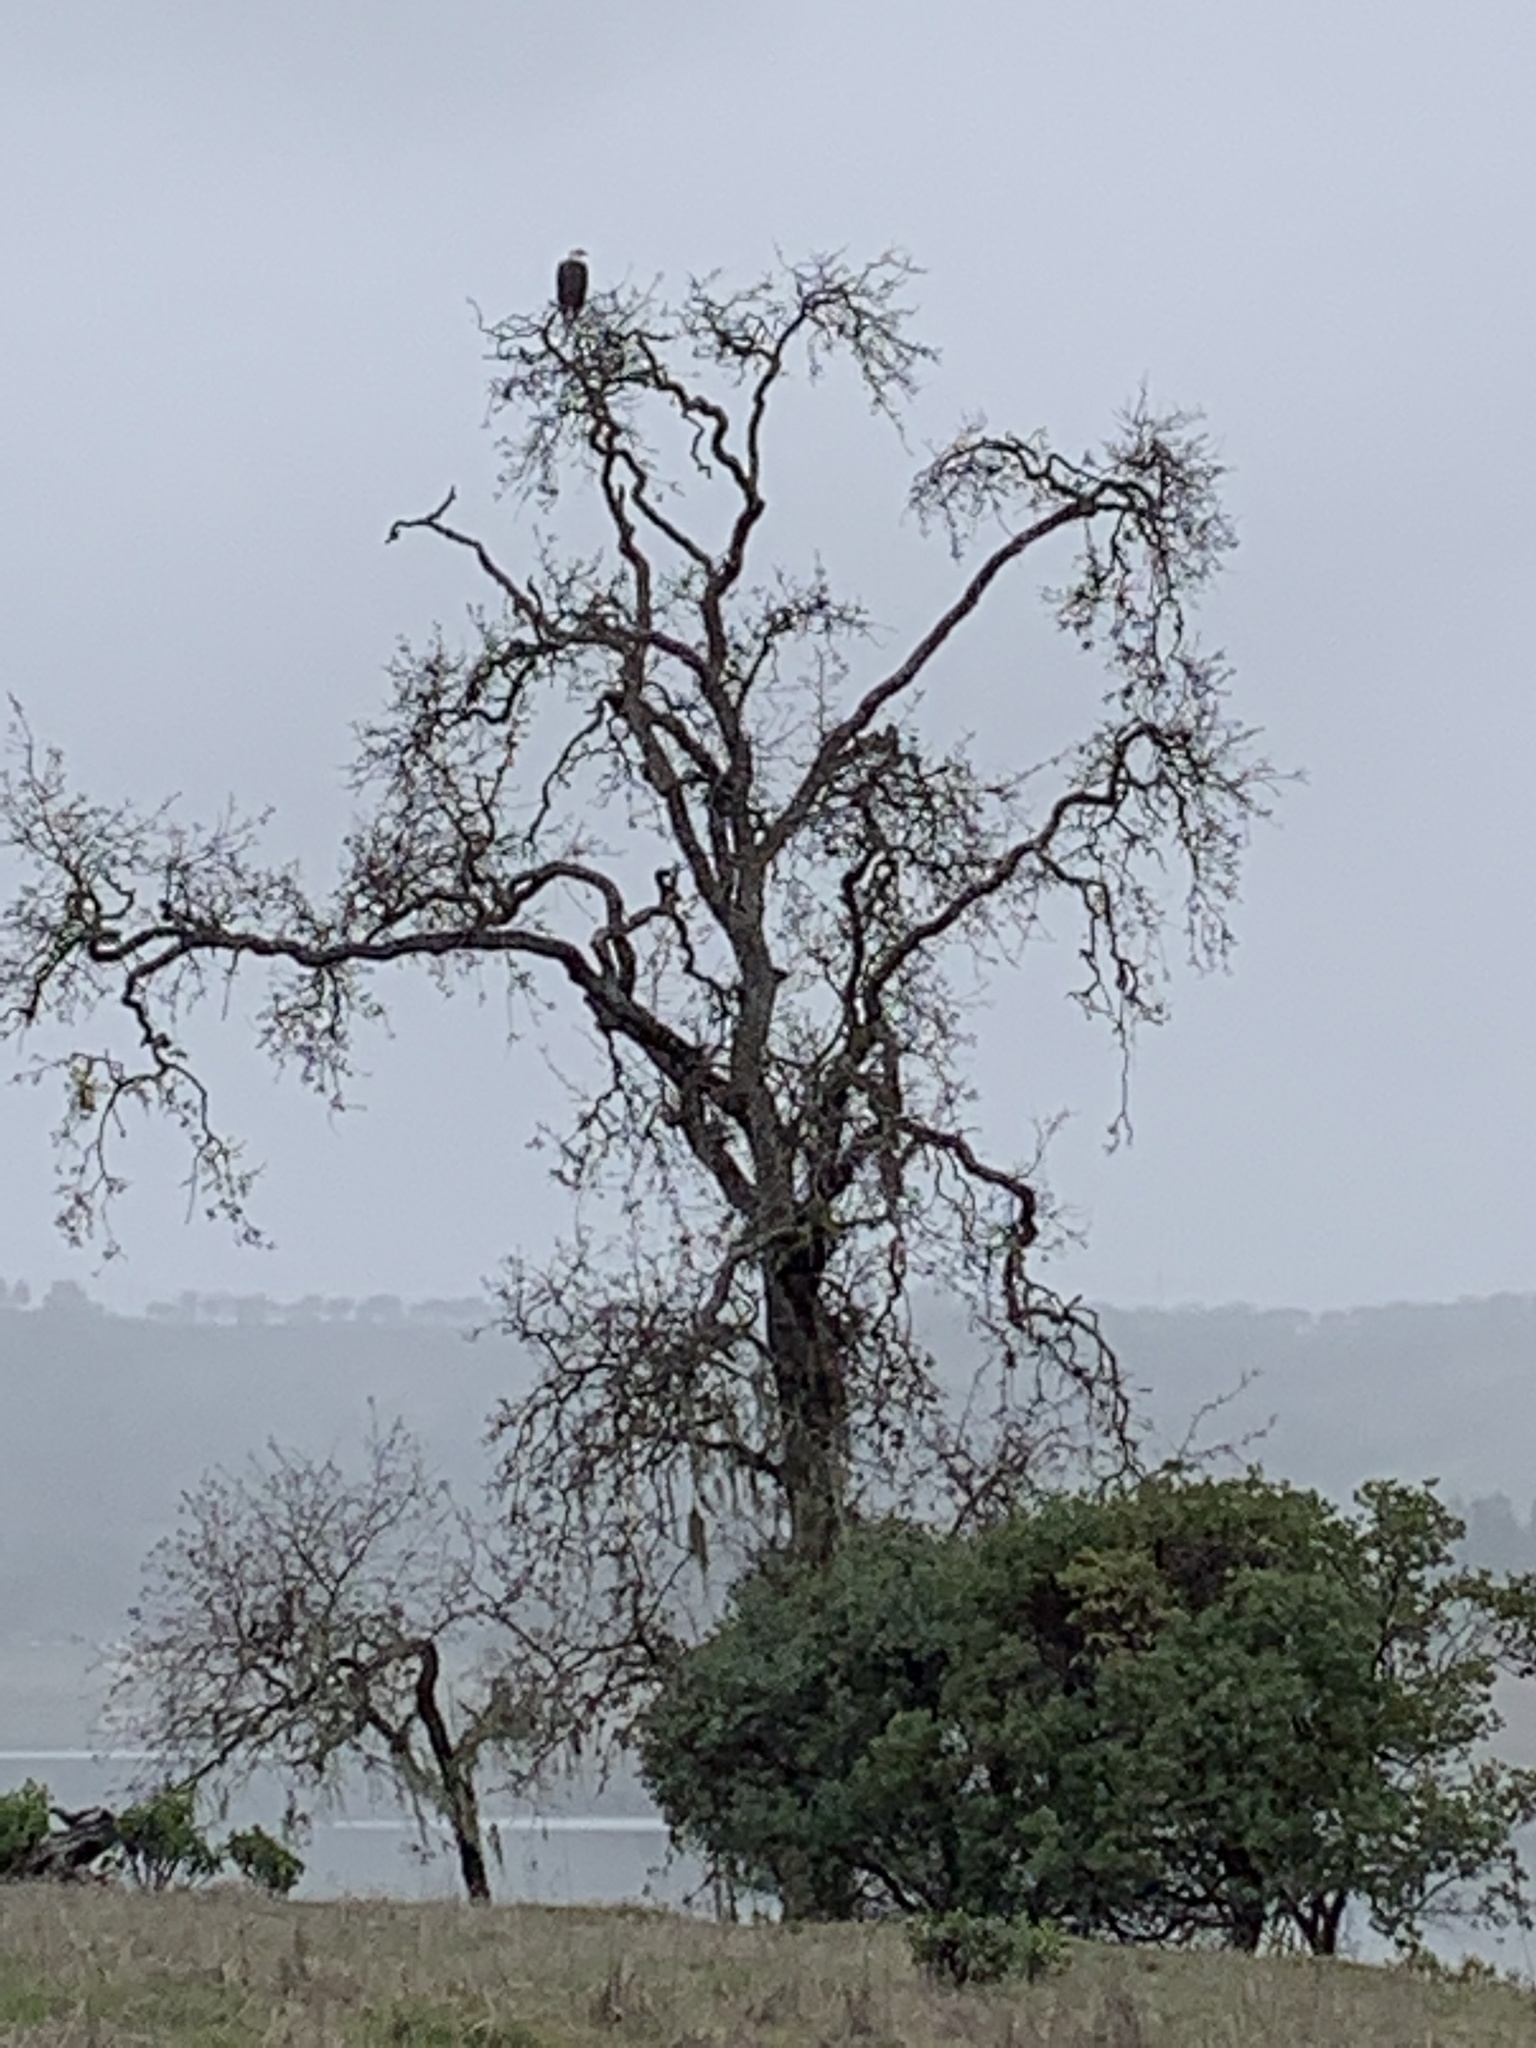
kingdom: Animalia
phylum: Chordata
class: Aves
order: Accipitriformes
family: Accipitridae
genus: Haliaeetus
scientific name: Haliaeetus leucocephalus
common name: Bald eagle
